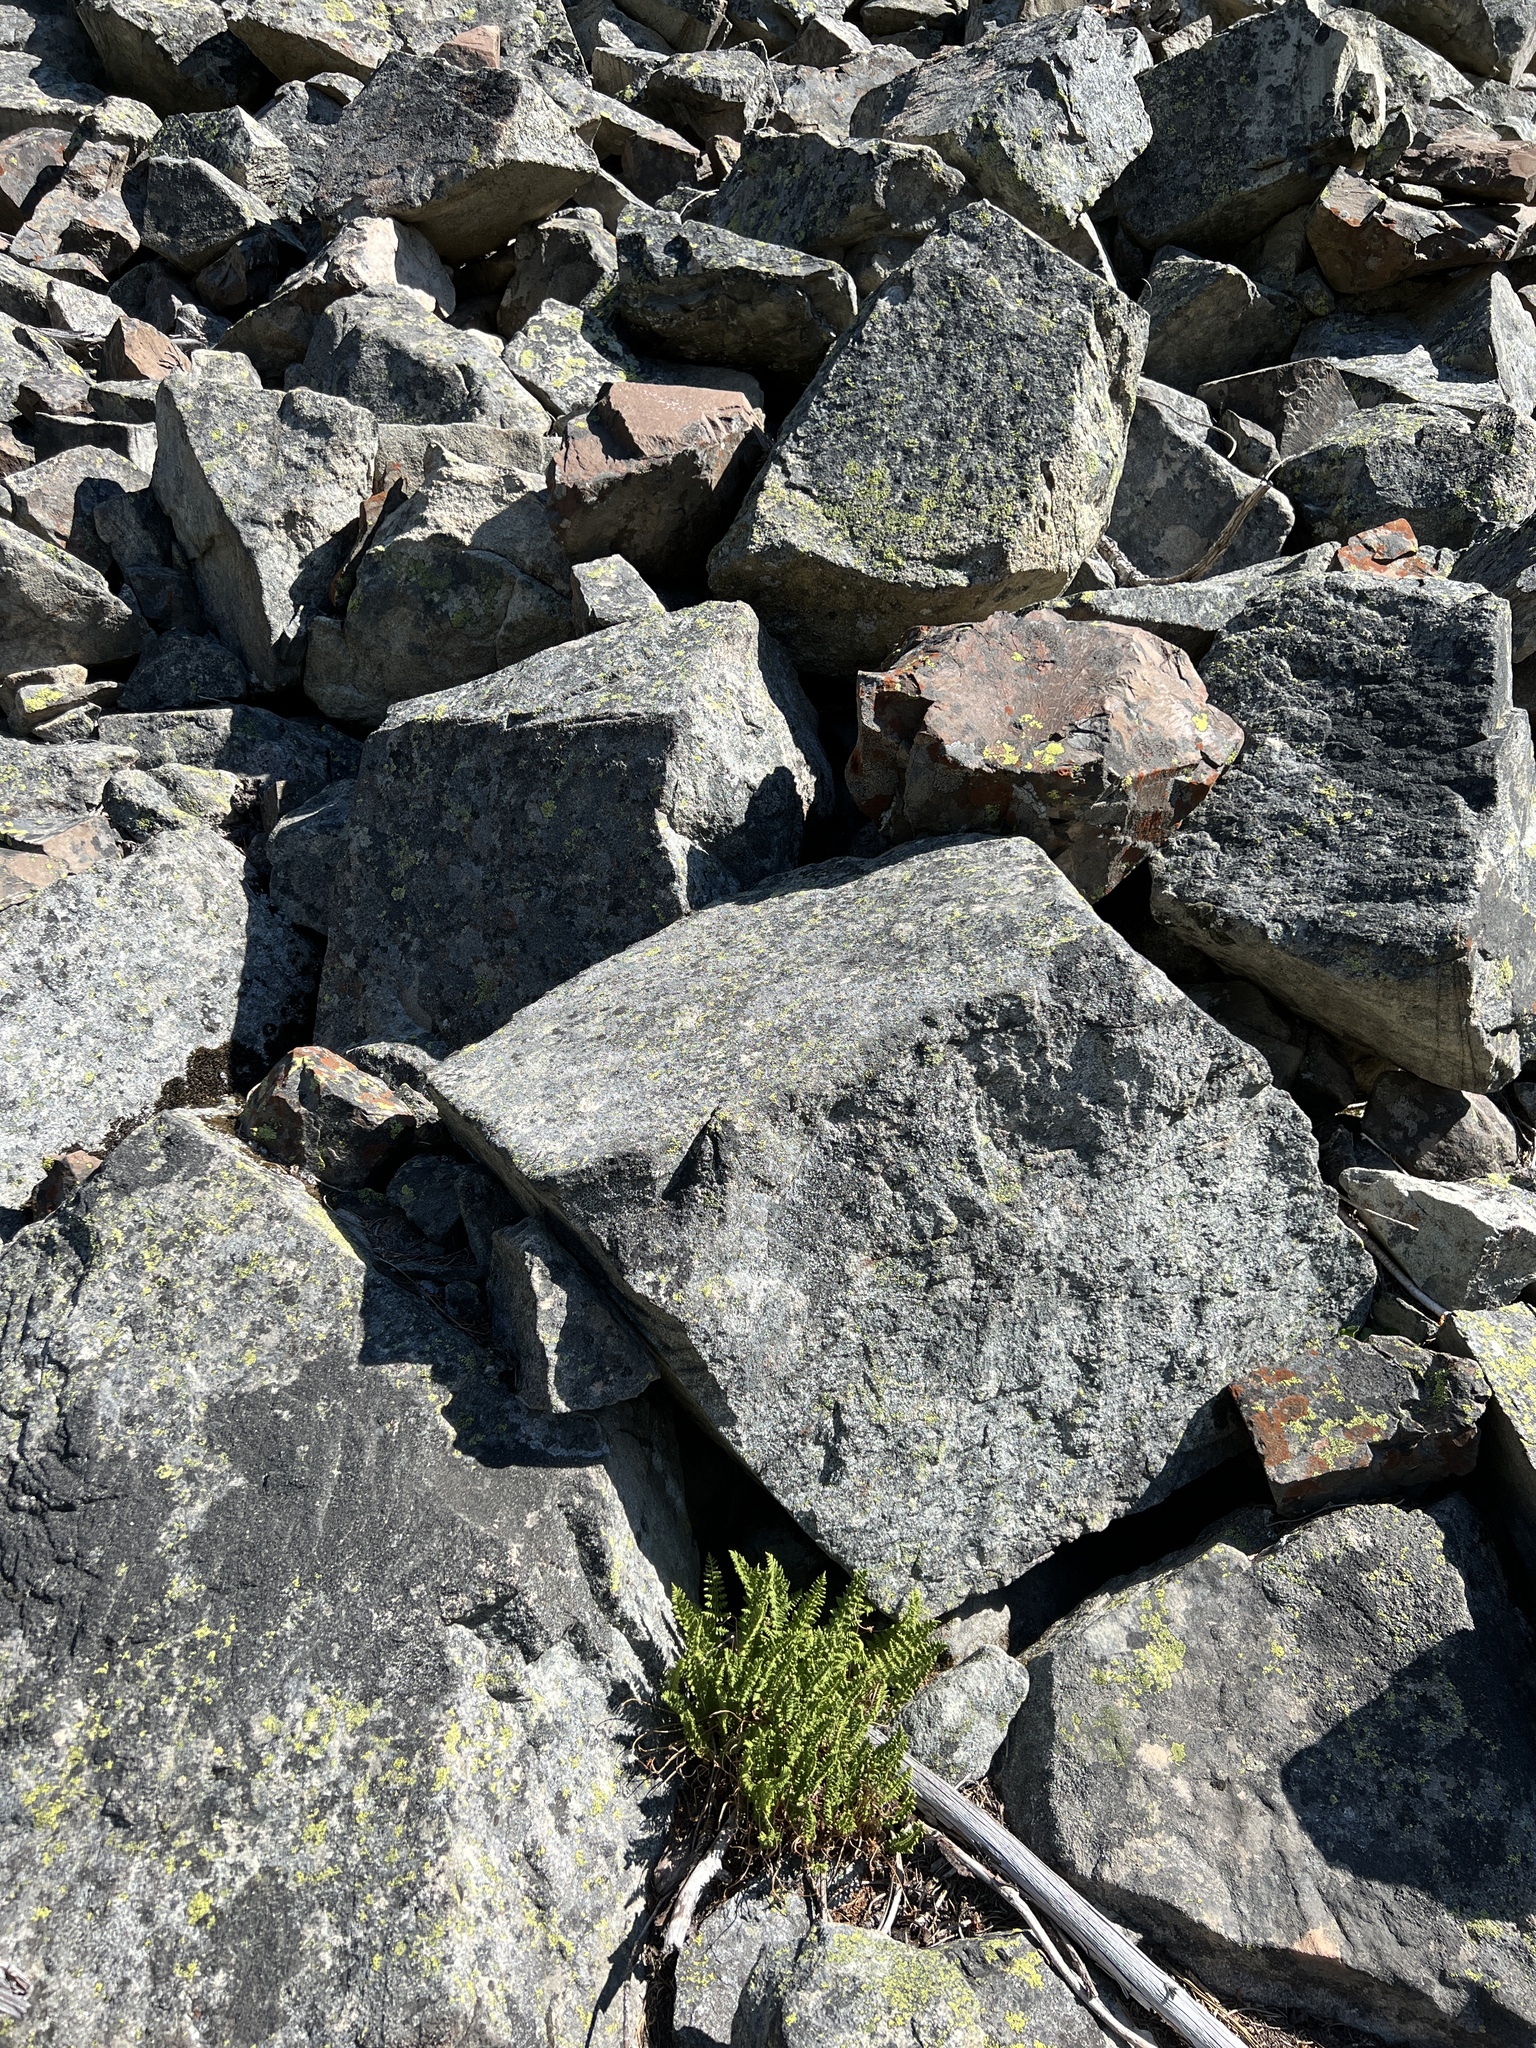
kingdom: Plantae
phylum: Tracheophyta
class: Polypodiopsida
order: Polypodiales
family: Woodsiaceae
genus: Physematium
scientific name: Physematium scopulinum
